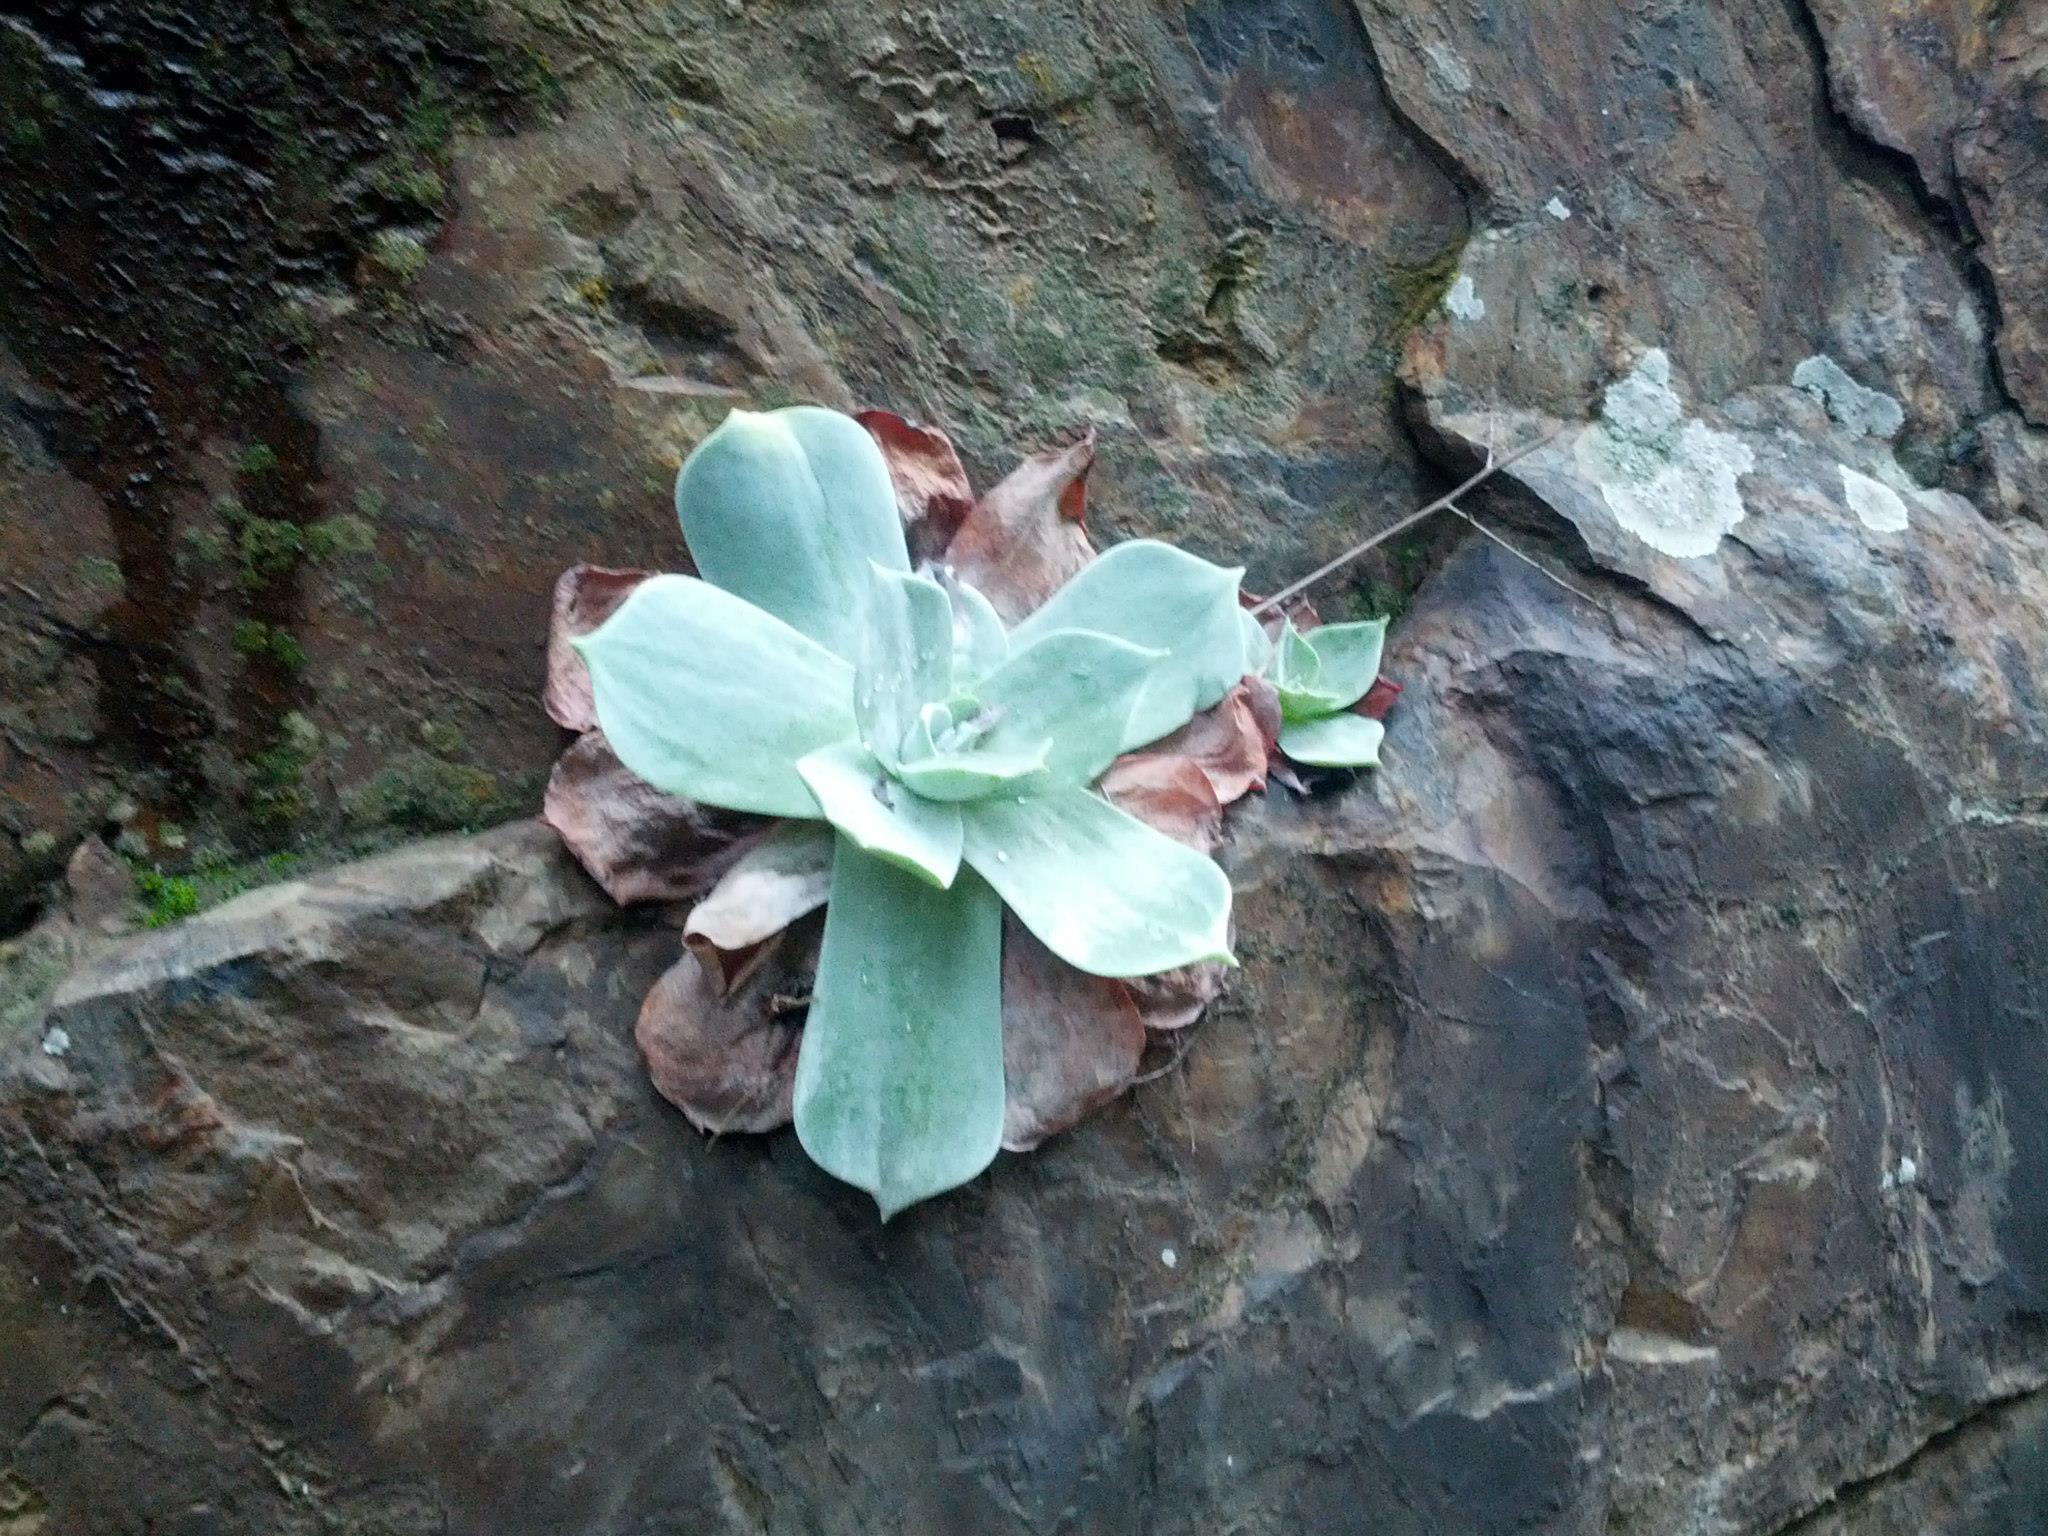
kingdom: Plantae
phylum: Tracheophyta
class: Magnoliopsida
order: Saxifragales
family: Crassulaceae
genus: Dudleya
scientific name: Dudleya pulverulenta
